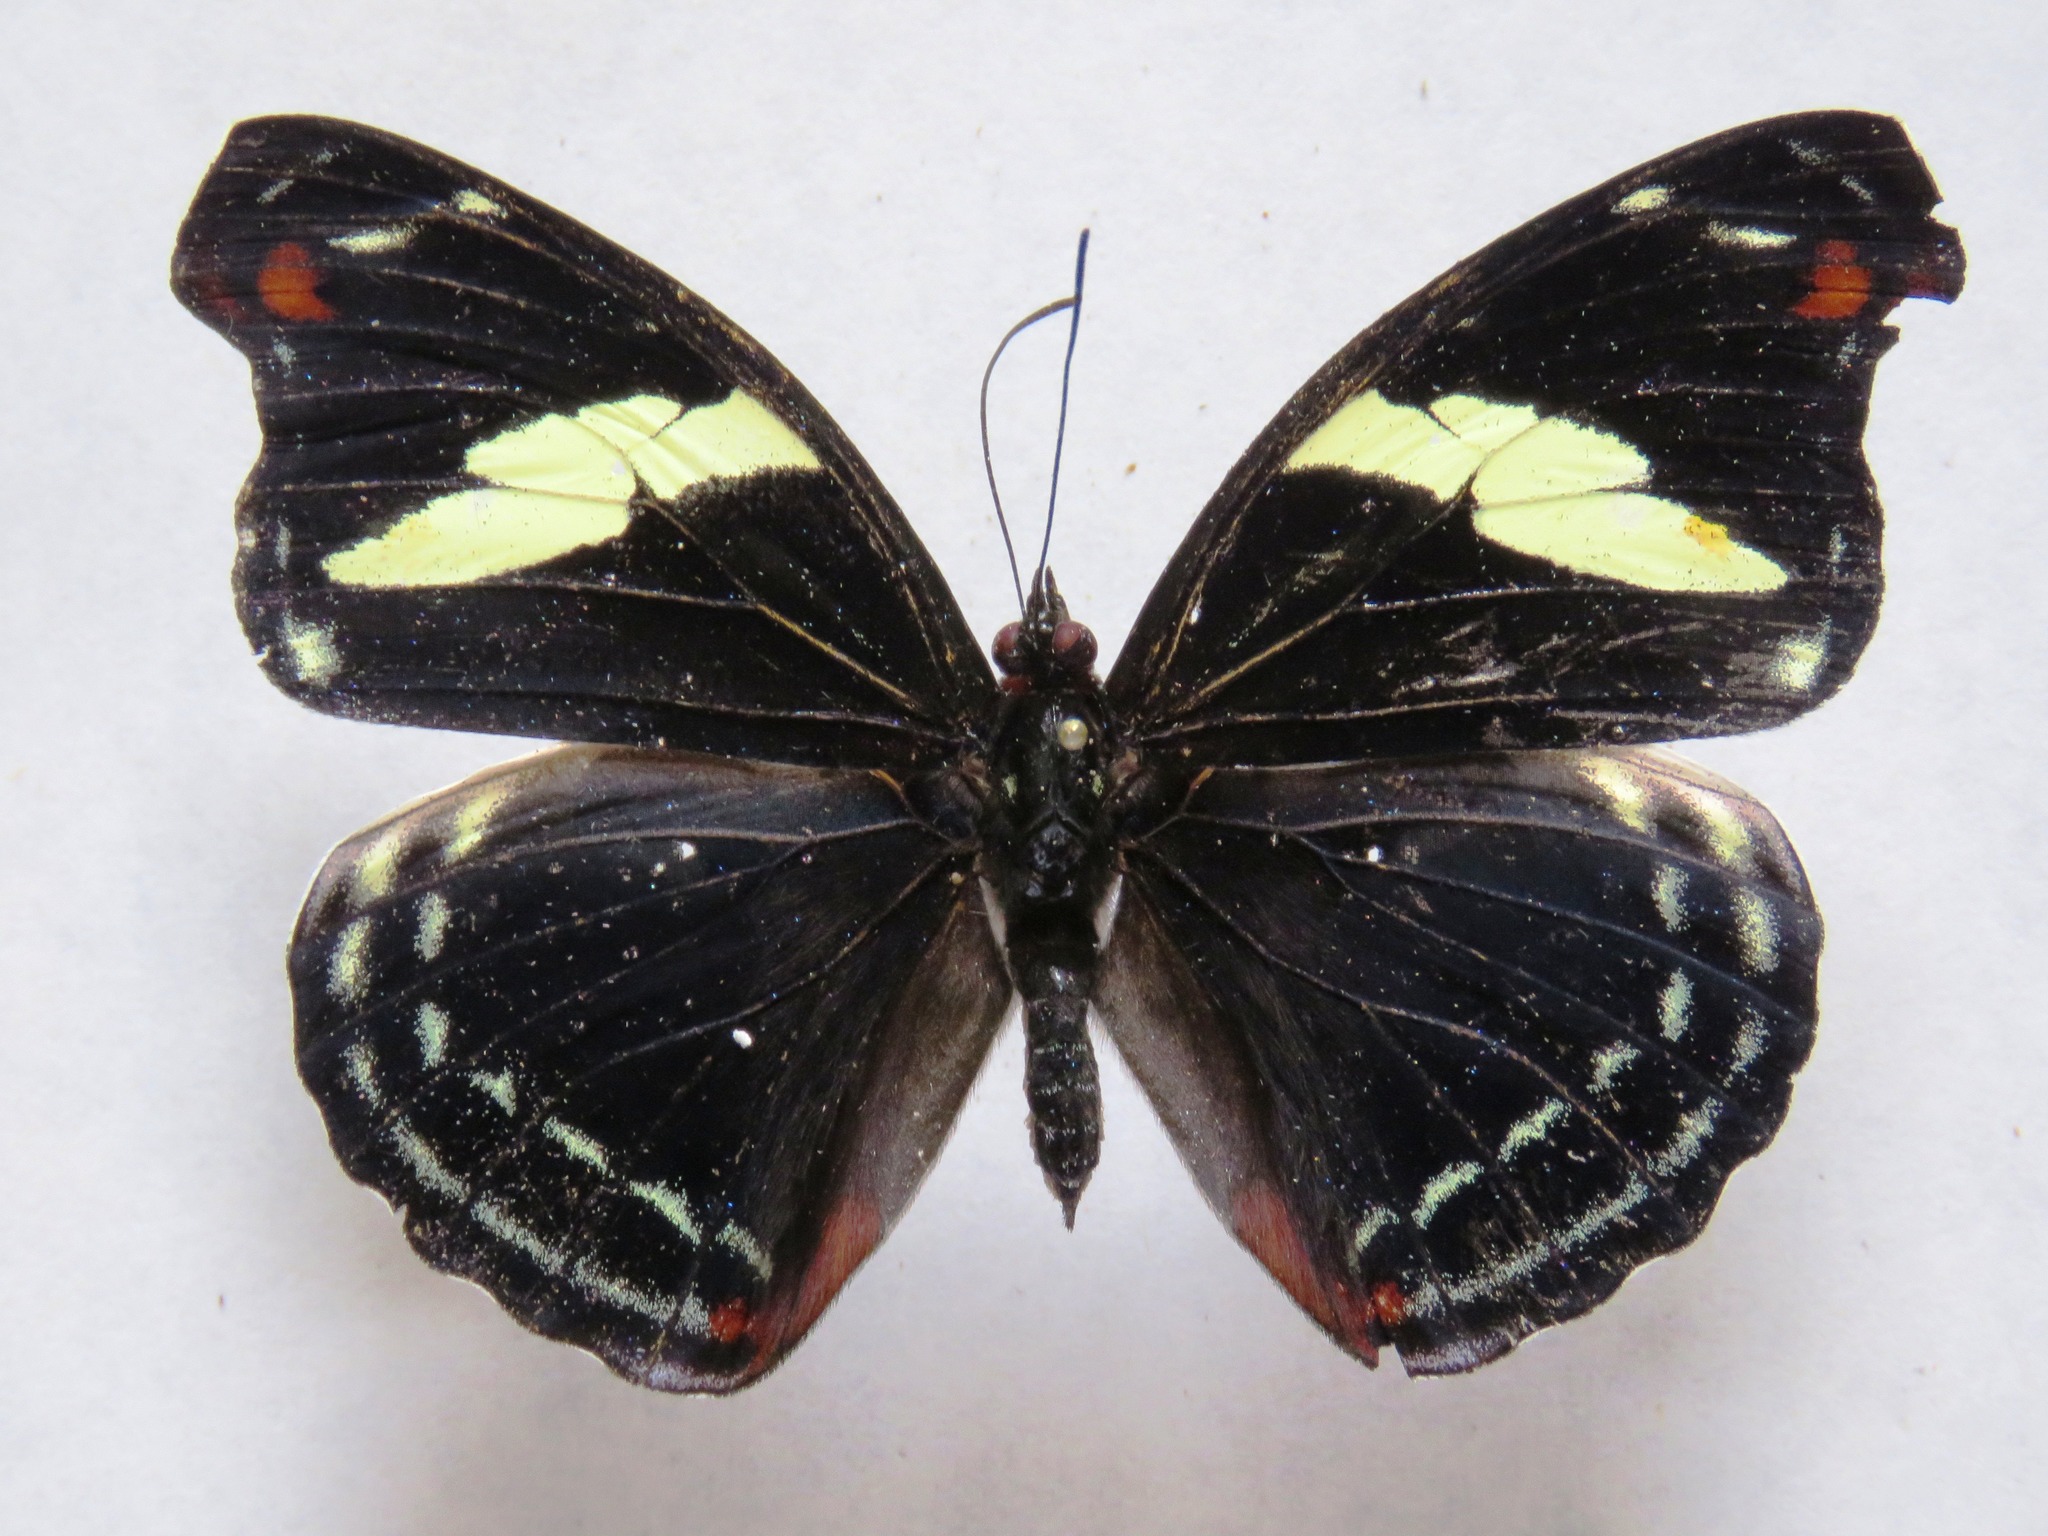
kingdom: Animalia
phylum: Arthropoda
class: Insecta
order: Lepidoptera
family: Nymphalidae
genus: Catonephele
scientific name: Catonephele numilia
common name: Blue-frosted banner
